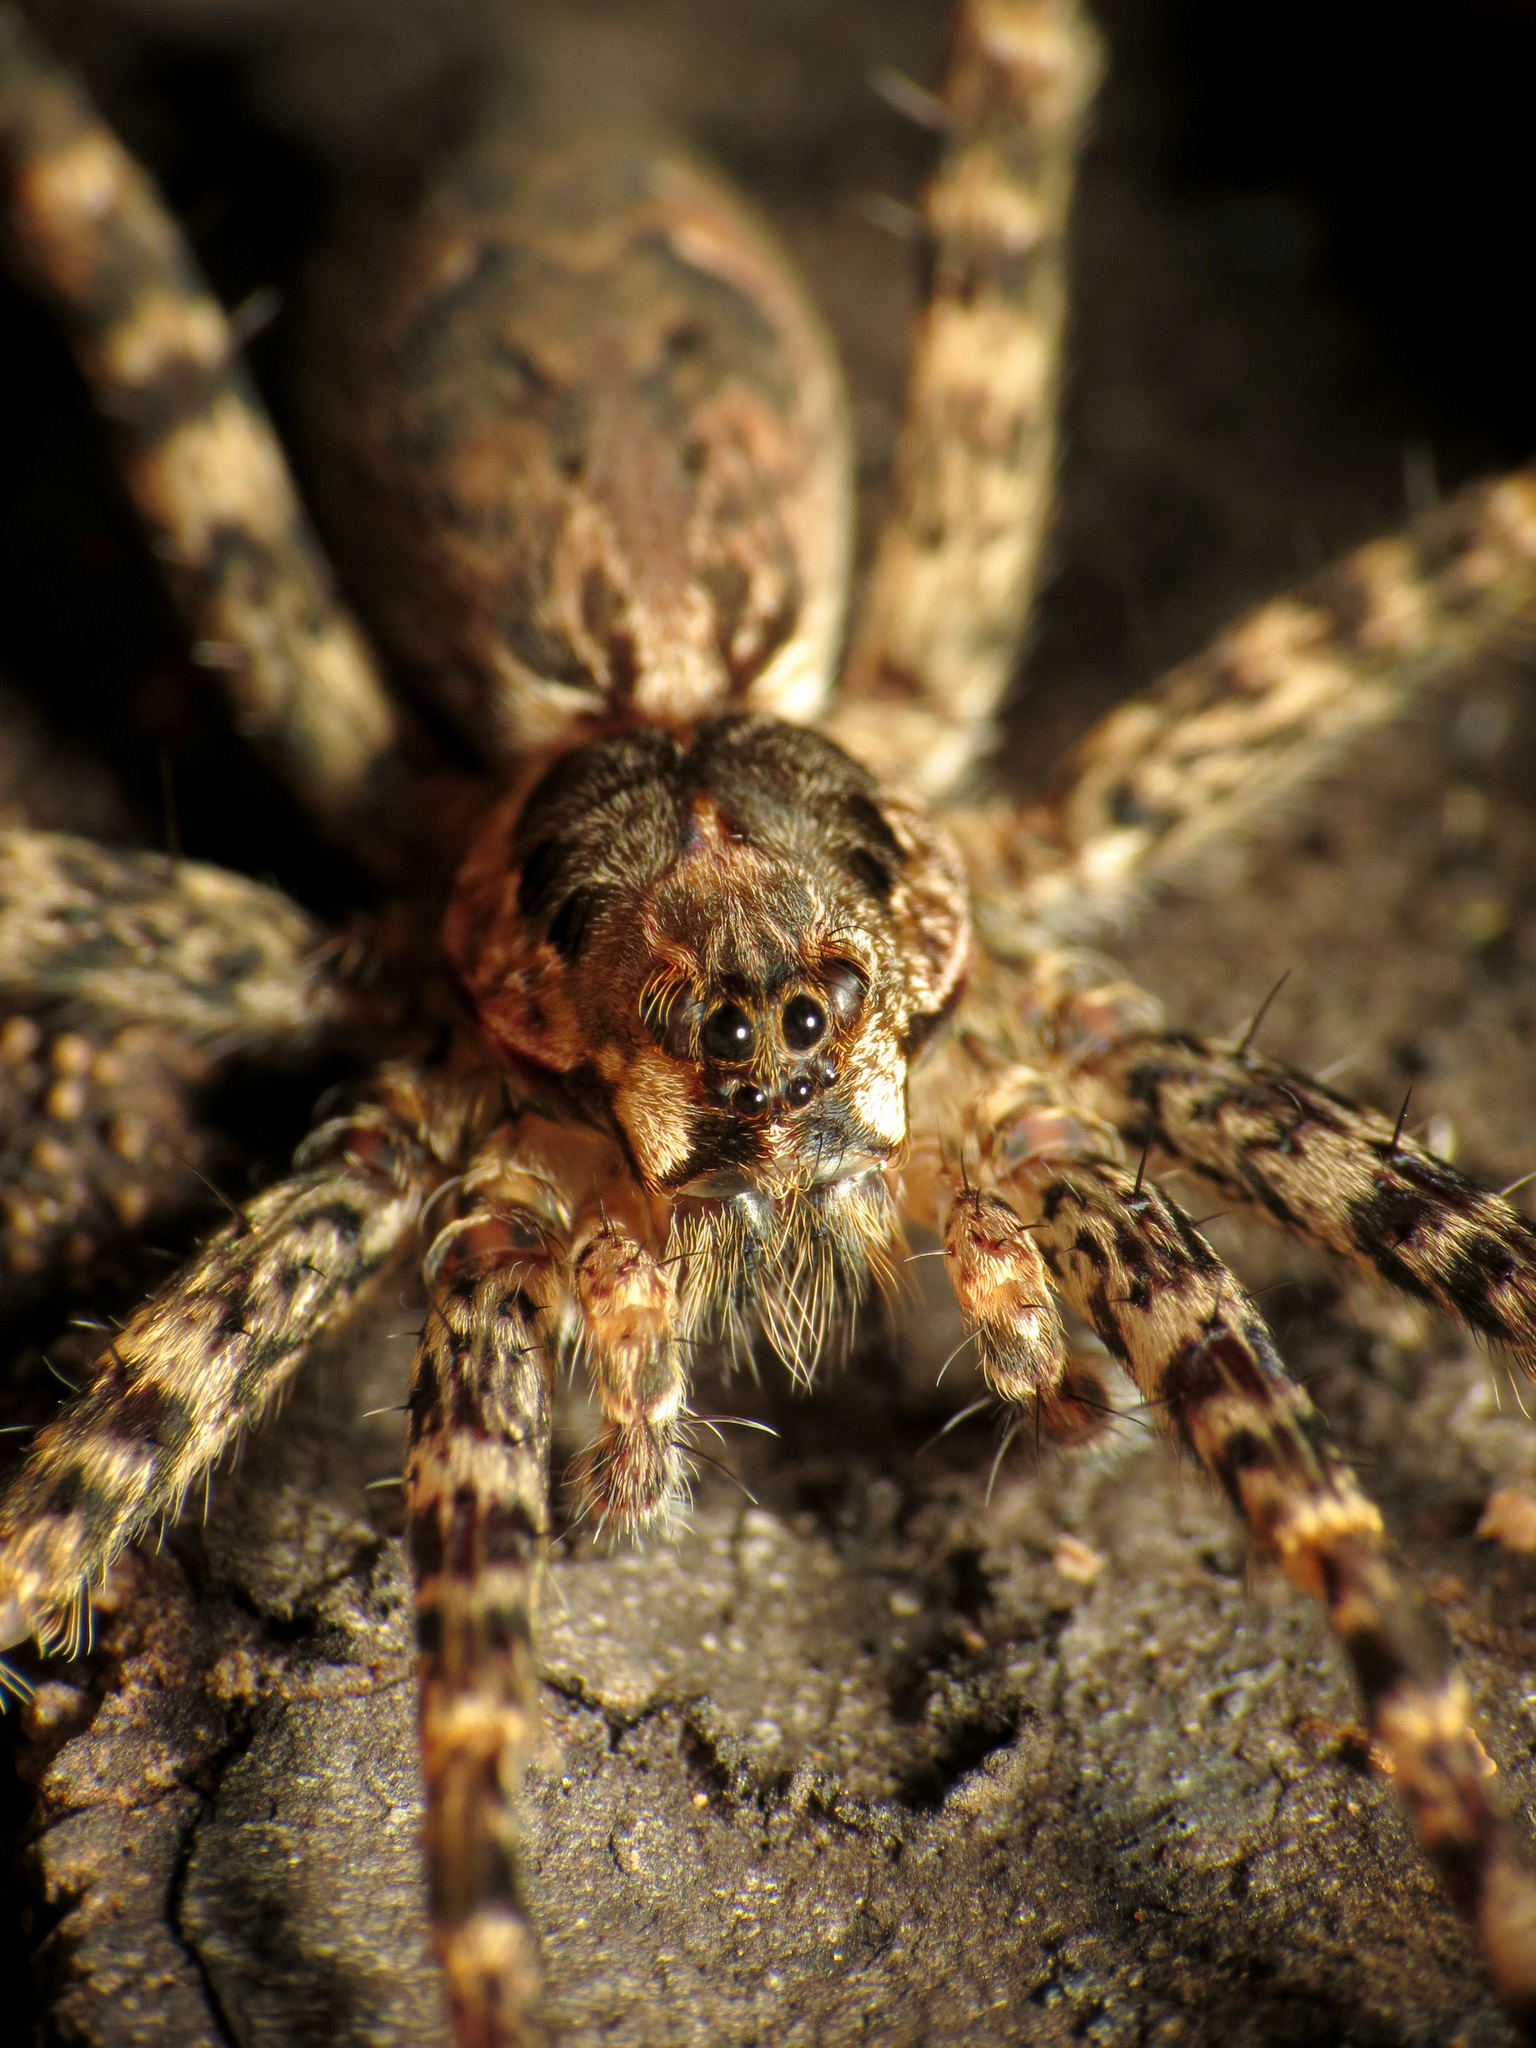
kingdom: Animalia
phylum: Arthropoda
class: Arachnida
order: Araneae
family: Pisauridae
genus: Dolomedes
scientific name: Dolomedes tenebrosus
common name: Dark fishing spider
